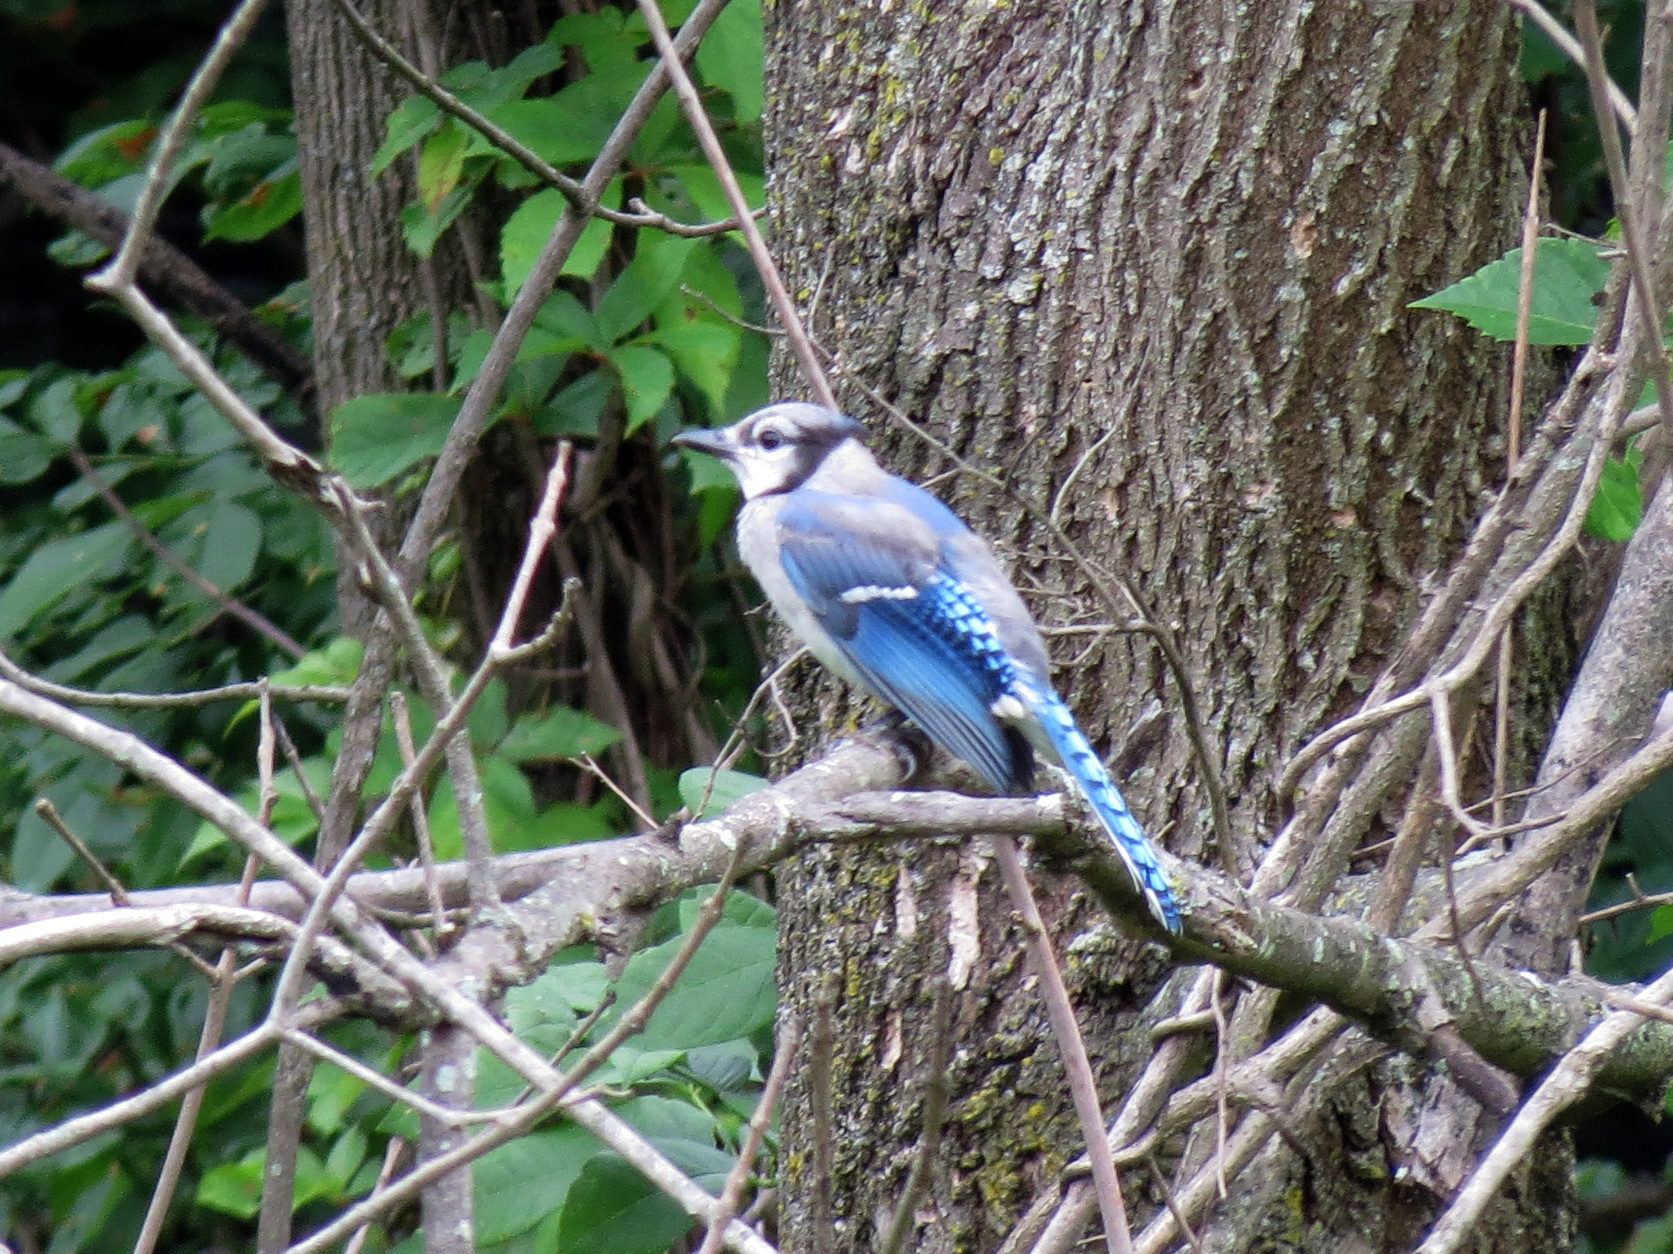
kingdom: Animalia
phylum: Chordata
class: Aves
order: Passeriformes
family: Corvidae
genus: Cyanocitta
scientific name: Cyanocitta cristata
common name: Blue jay
